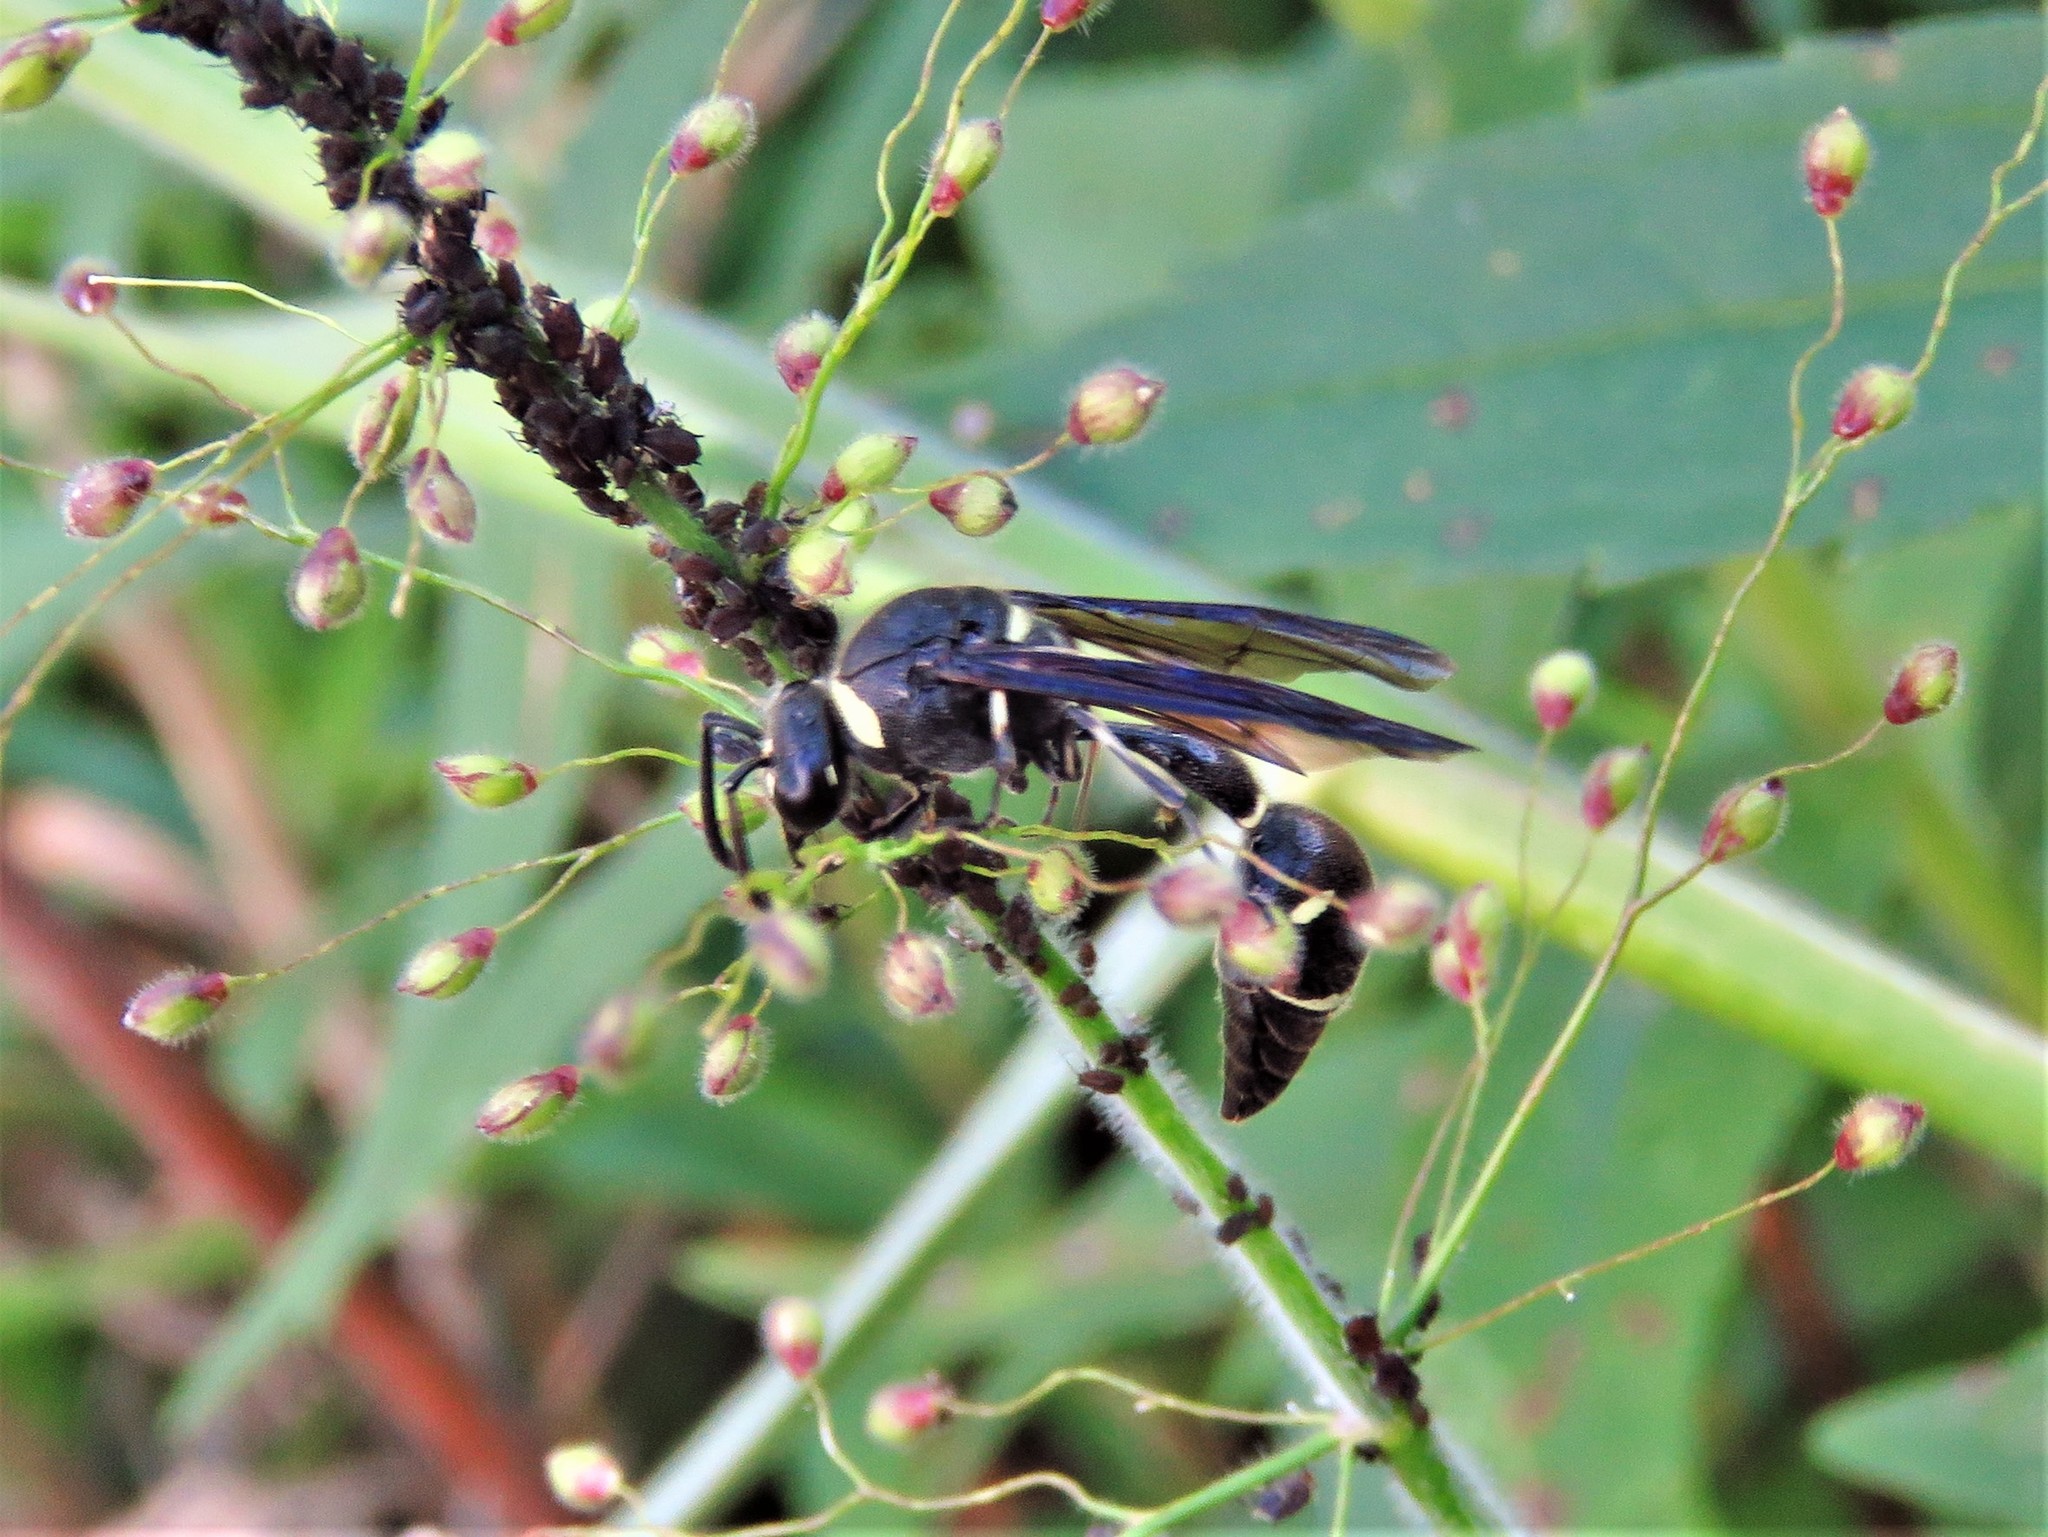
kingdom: Animalia
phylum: Arthropoda
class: Insecta
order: Hymenoptera
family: Vespidae
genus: Eumenes
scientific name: Eumenes fraternus
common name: Fraternal potter wasp
